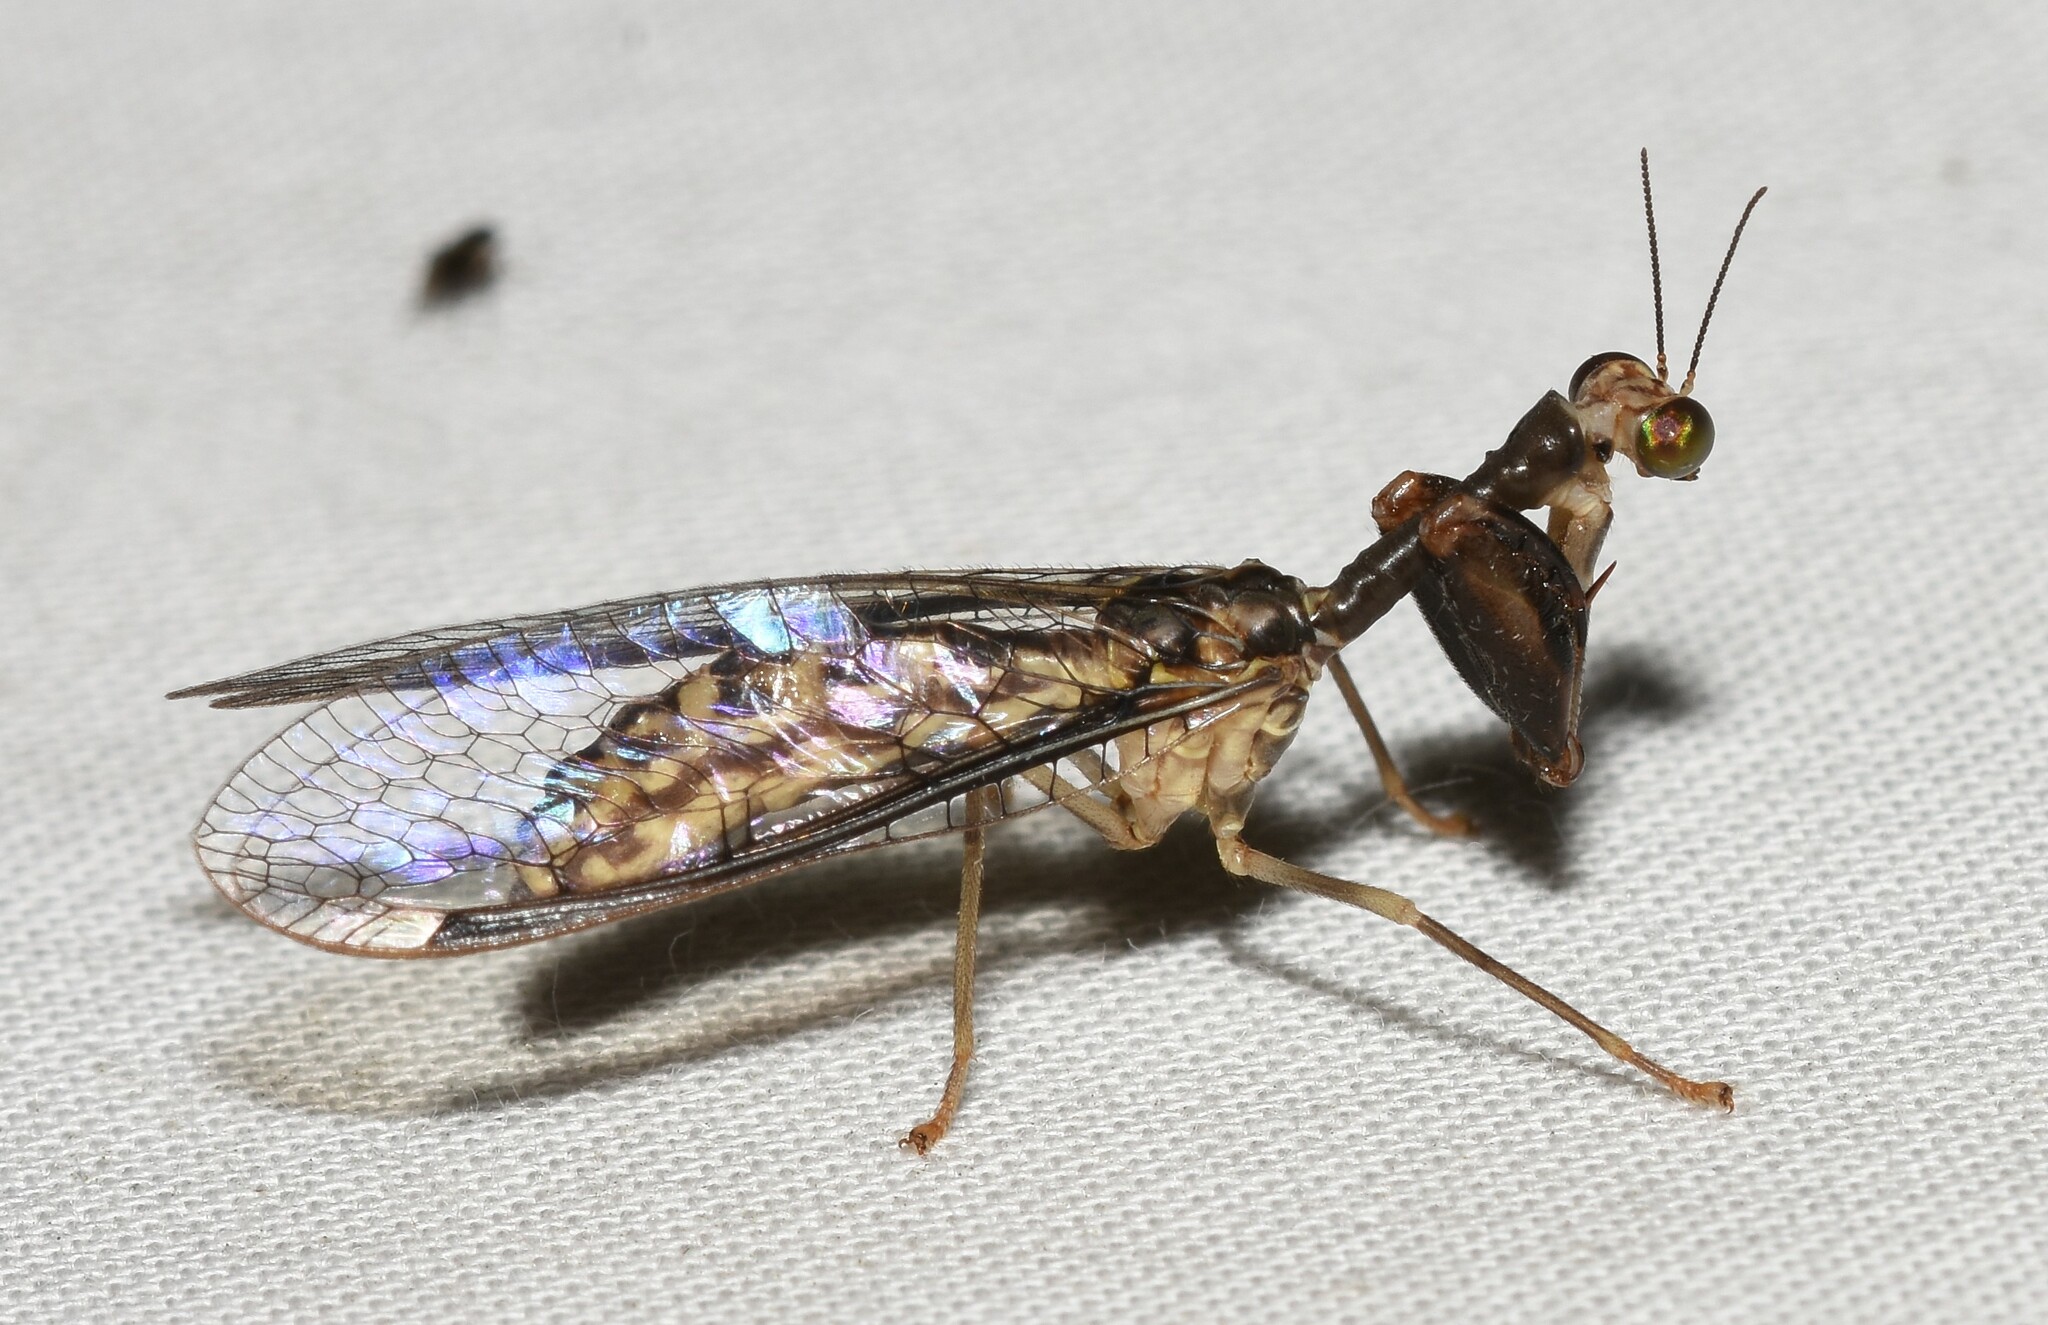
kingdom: Animalia
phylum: Arthropoda
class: Insecta
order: Neuroptera
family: Mantispidae
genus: Dicromantispa
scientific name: Dicromantispa sayi
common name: Say's mantidfly
